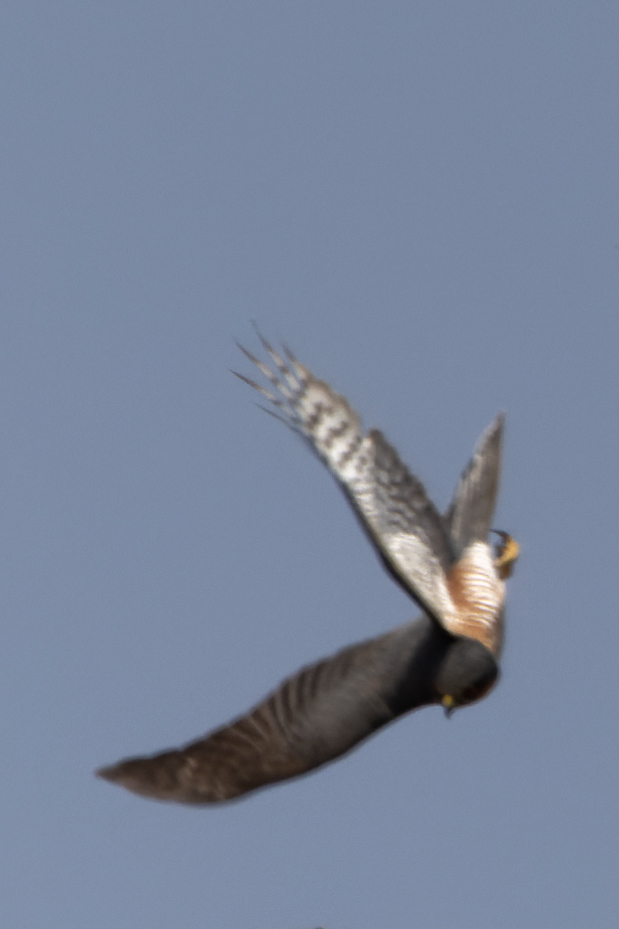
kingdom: Animalia
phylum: Chordata
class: Aves
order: Accipitriformes
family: Accipitridae
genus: Accipiter
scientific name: Accipiter nisus
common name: Eurasian sparrowhawk
